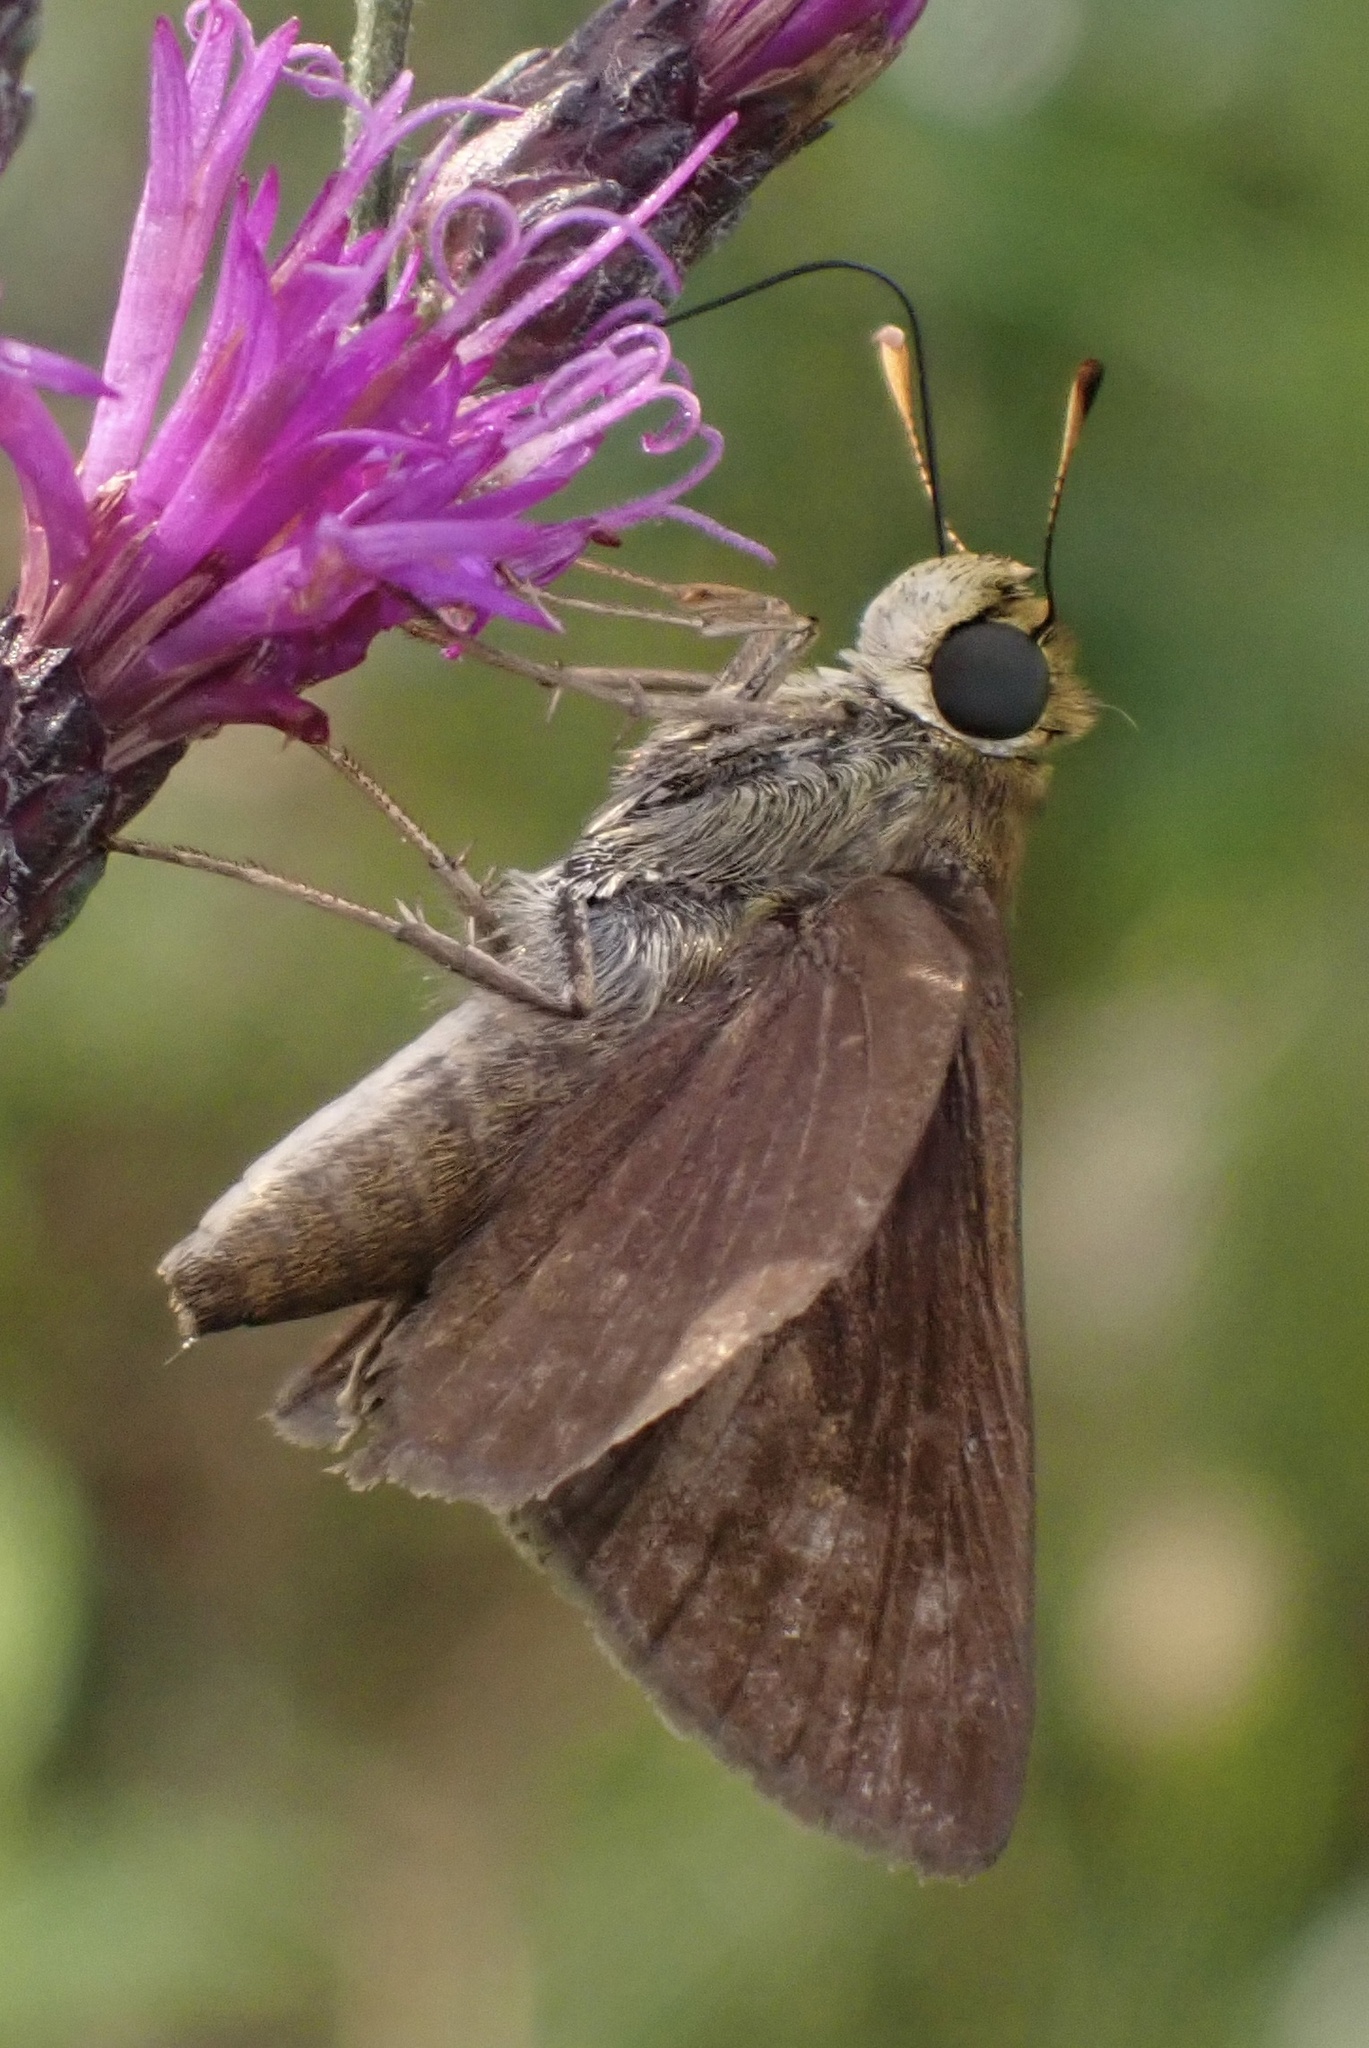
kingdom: Animalia
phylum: Arthropoda
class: Insecta
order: Lepidoptera
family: Hesperiidae
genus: Euphyes
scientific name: Euphyes vestris
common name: Dun skipper
